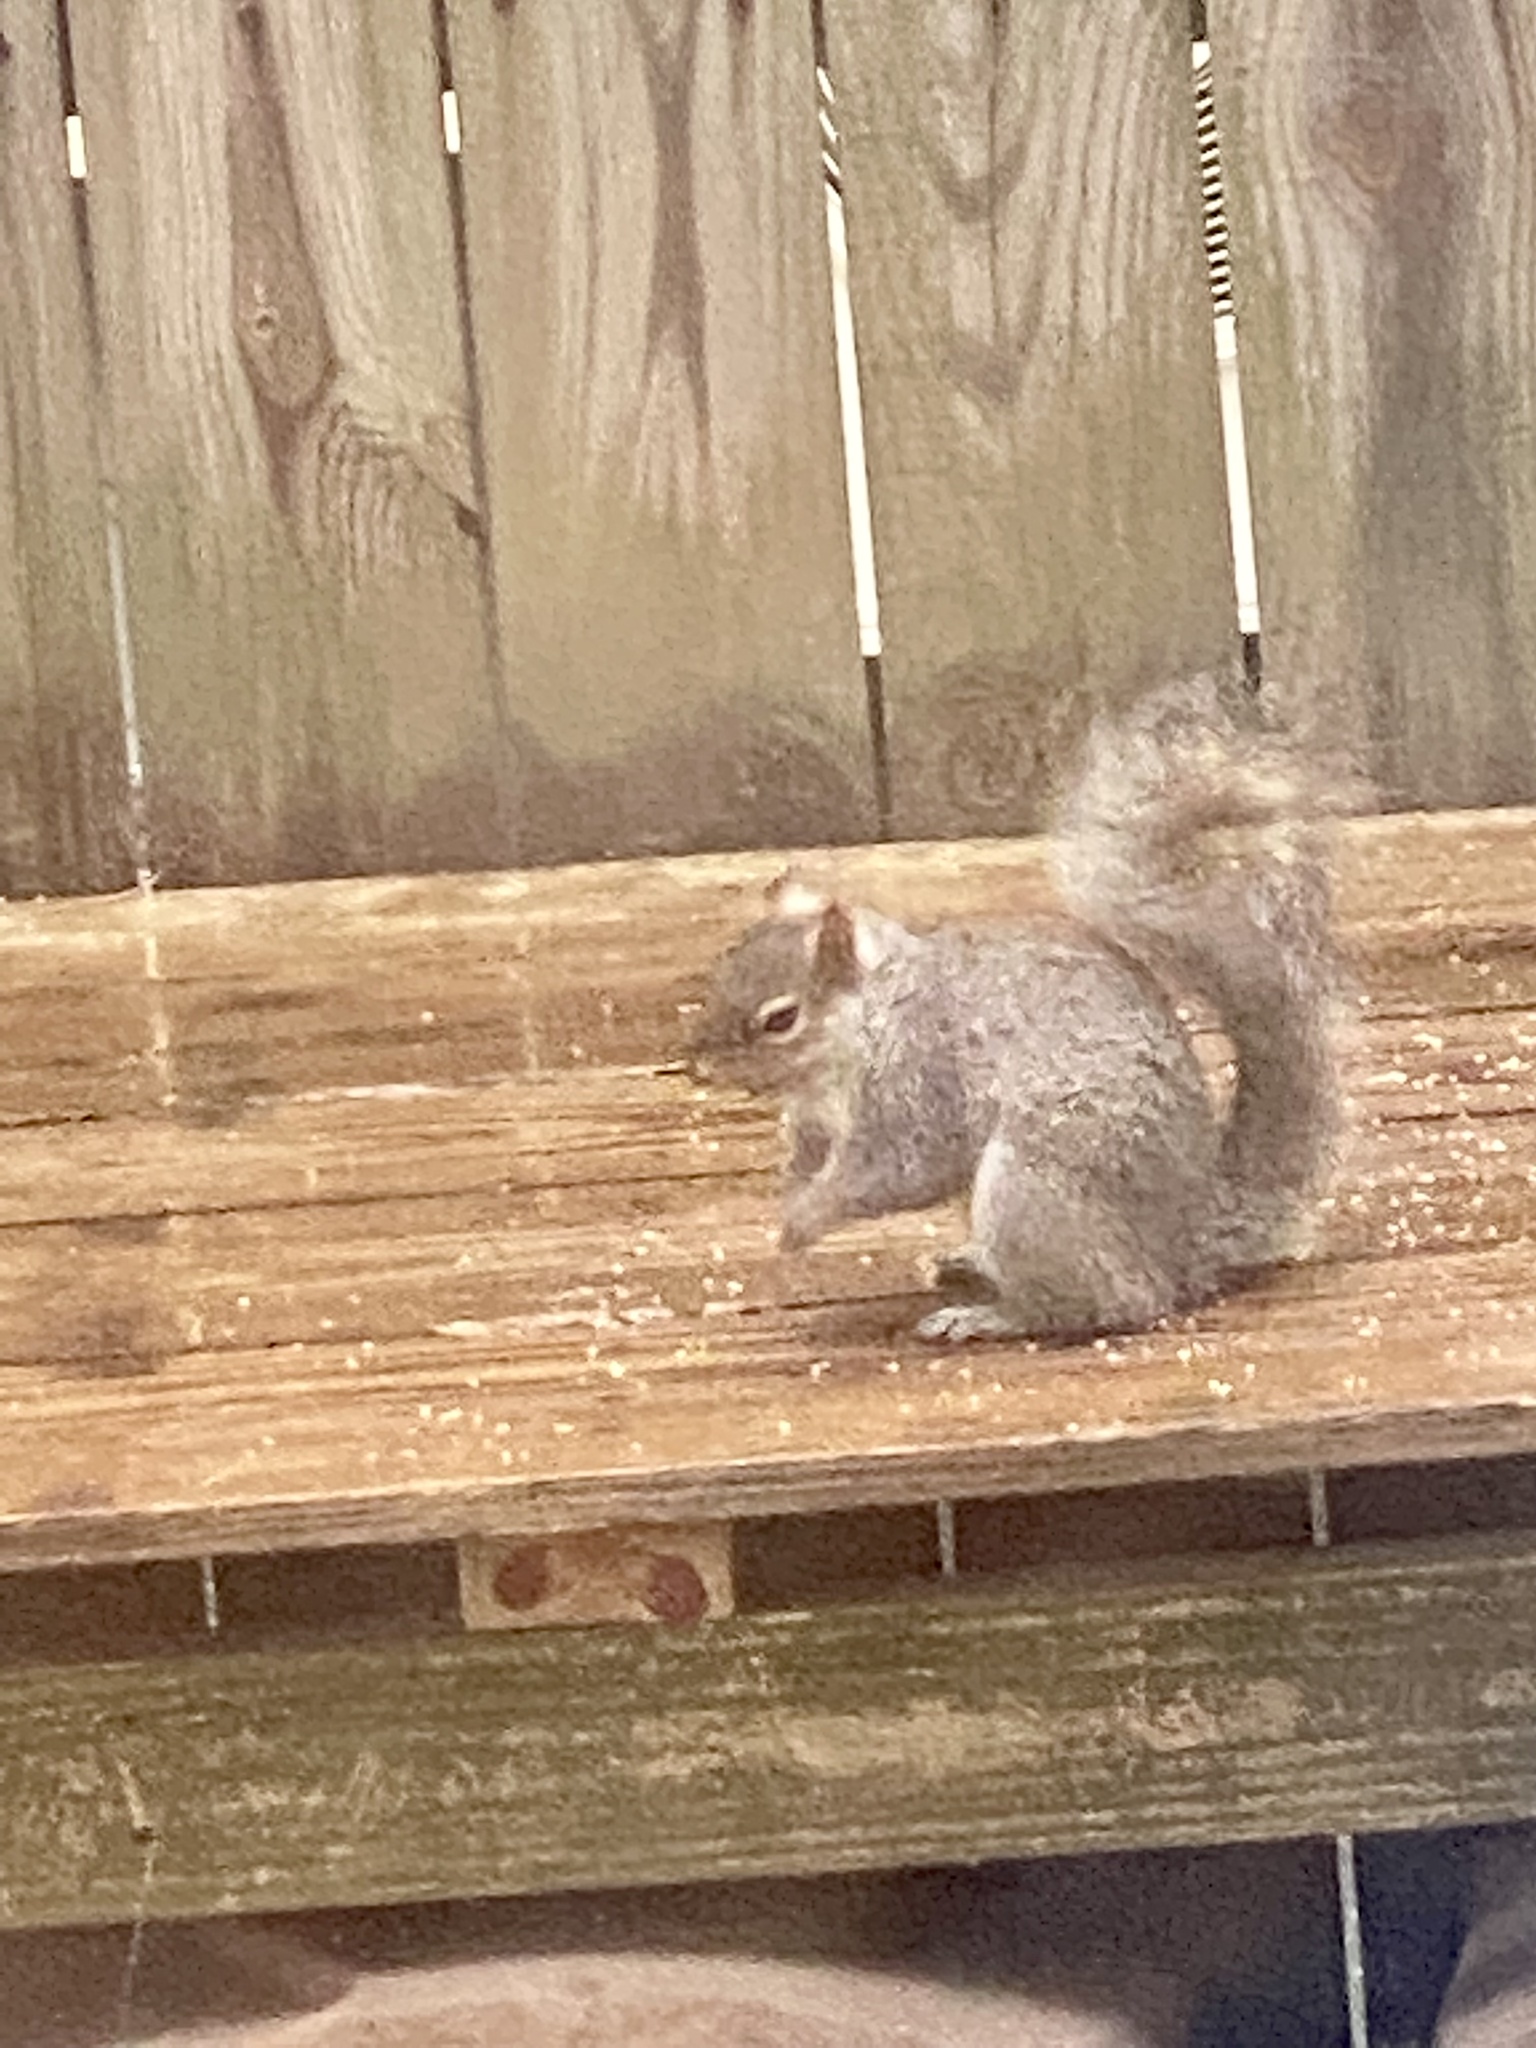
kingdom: Animalia
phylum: Chordata
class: Mammalia
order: Rodentia
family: Sciuridae
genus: Sciurus
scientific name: Sciurus carolinensis
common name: Eastern gray squirrel
